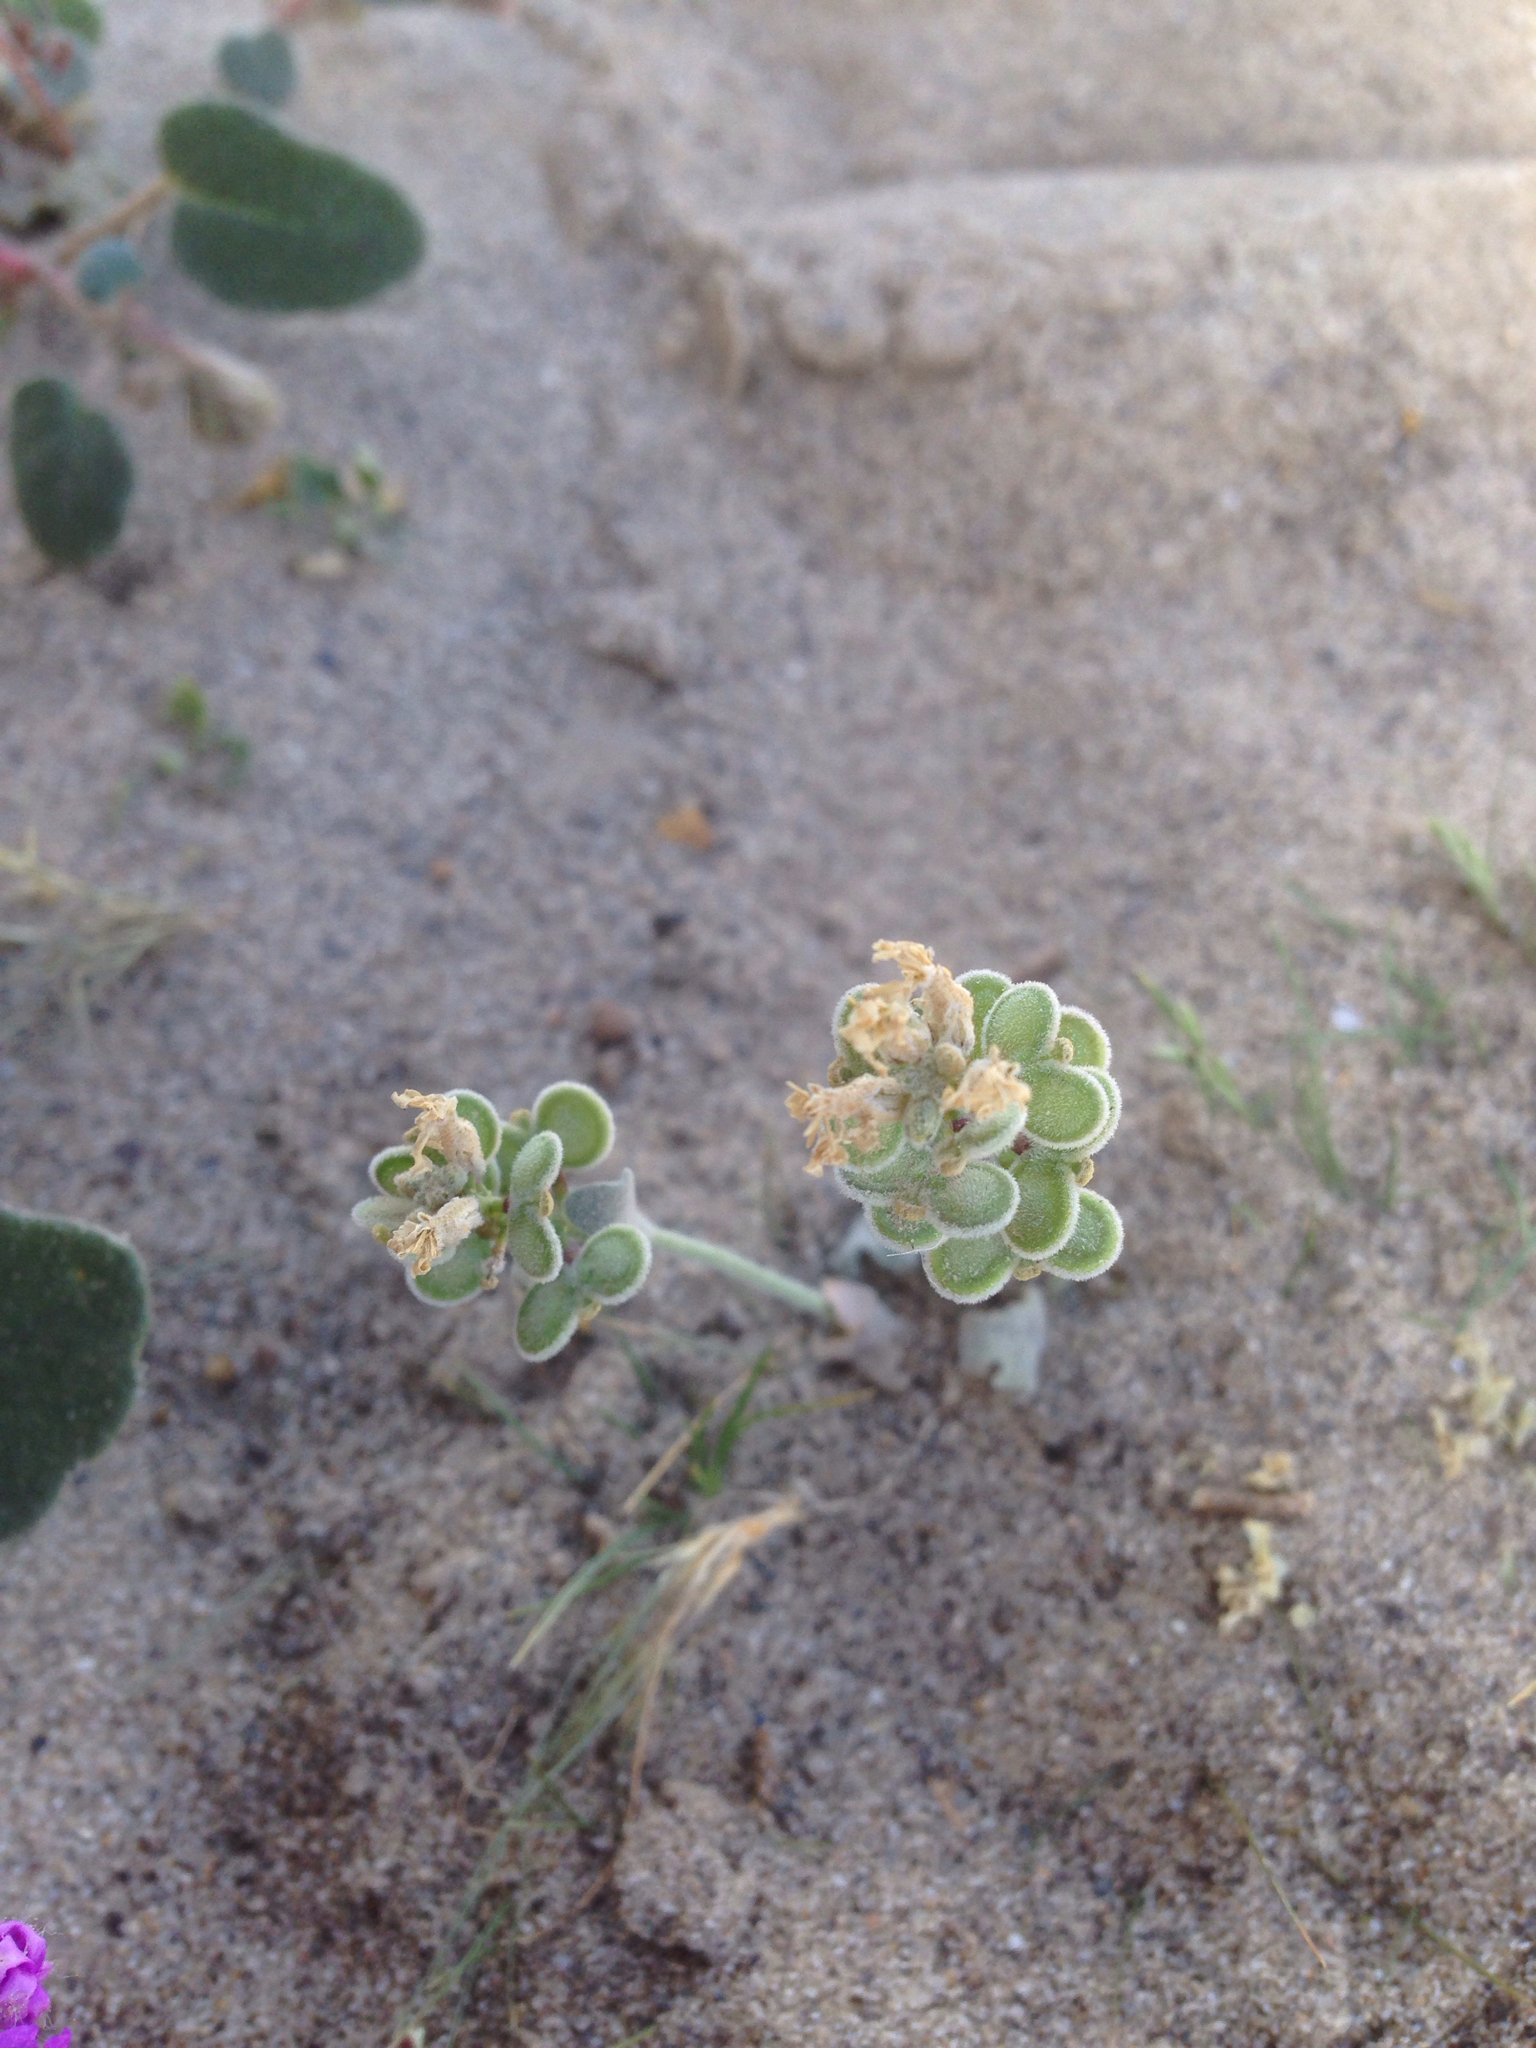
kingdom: Plantae
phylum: Tracheophyta
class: Magnoliopsida
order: Brassicales
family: Brassicaceae
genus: Dithyrea
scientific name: Dithyrea californica
